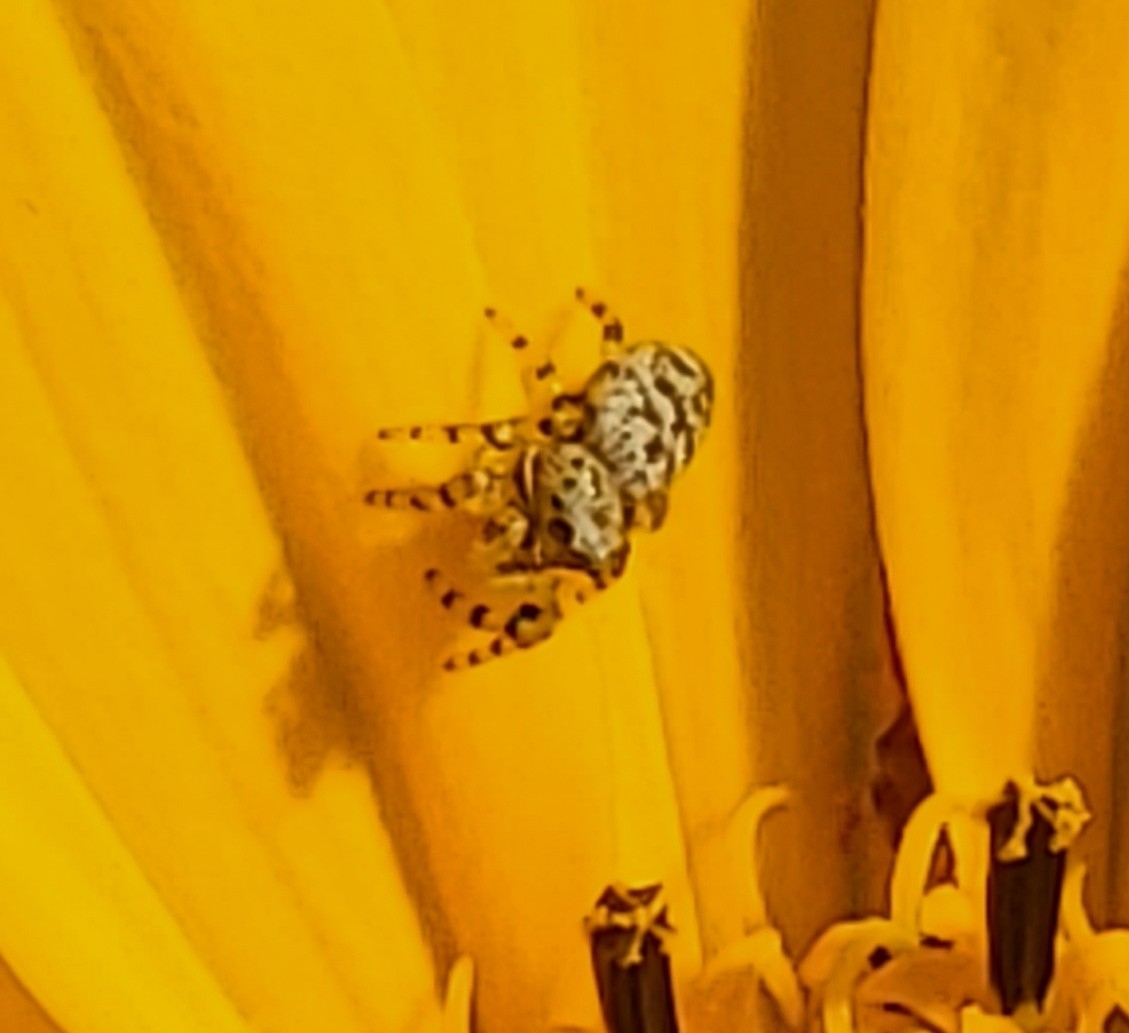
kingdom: Animalia
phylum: Arthropoda
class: Arachnida
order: Araneae
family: Salticidae
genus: Pelegrina
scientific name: Pelegrina galathea
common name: Jumping spiders
